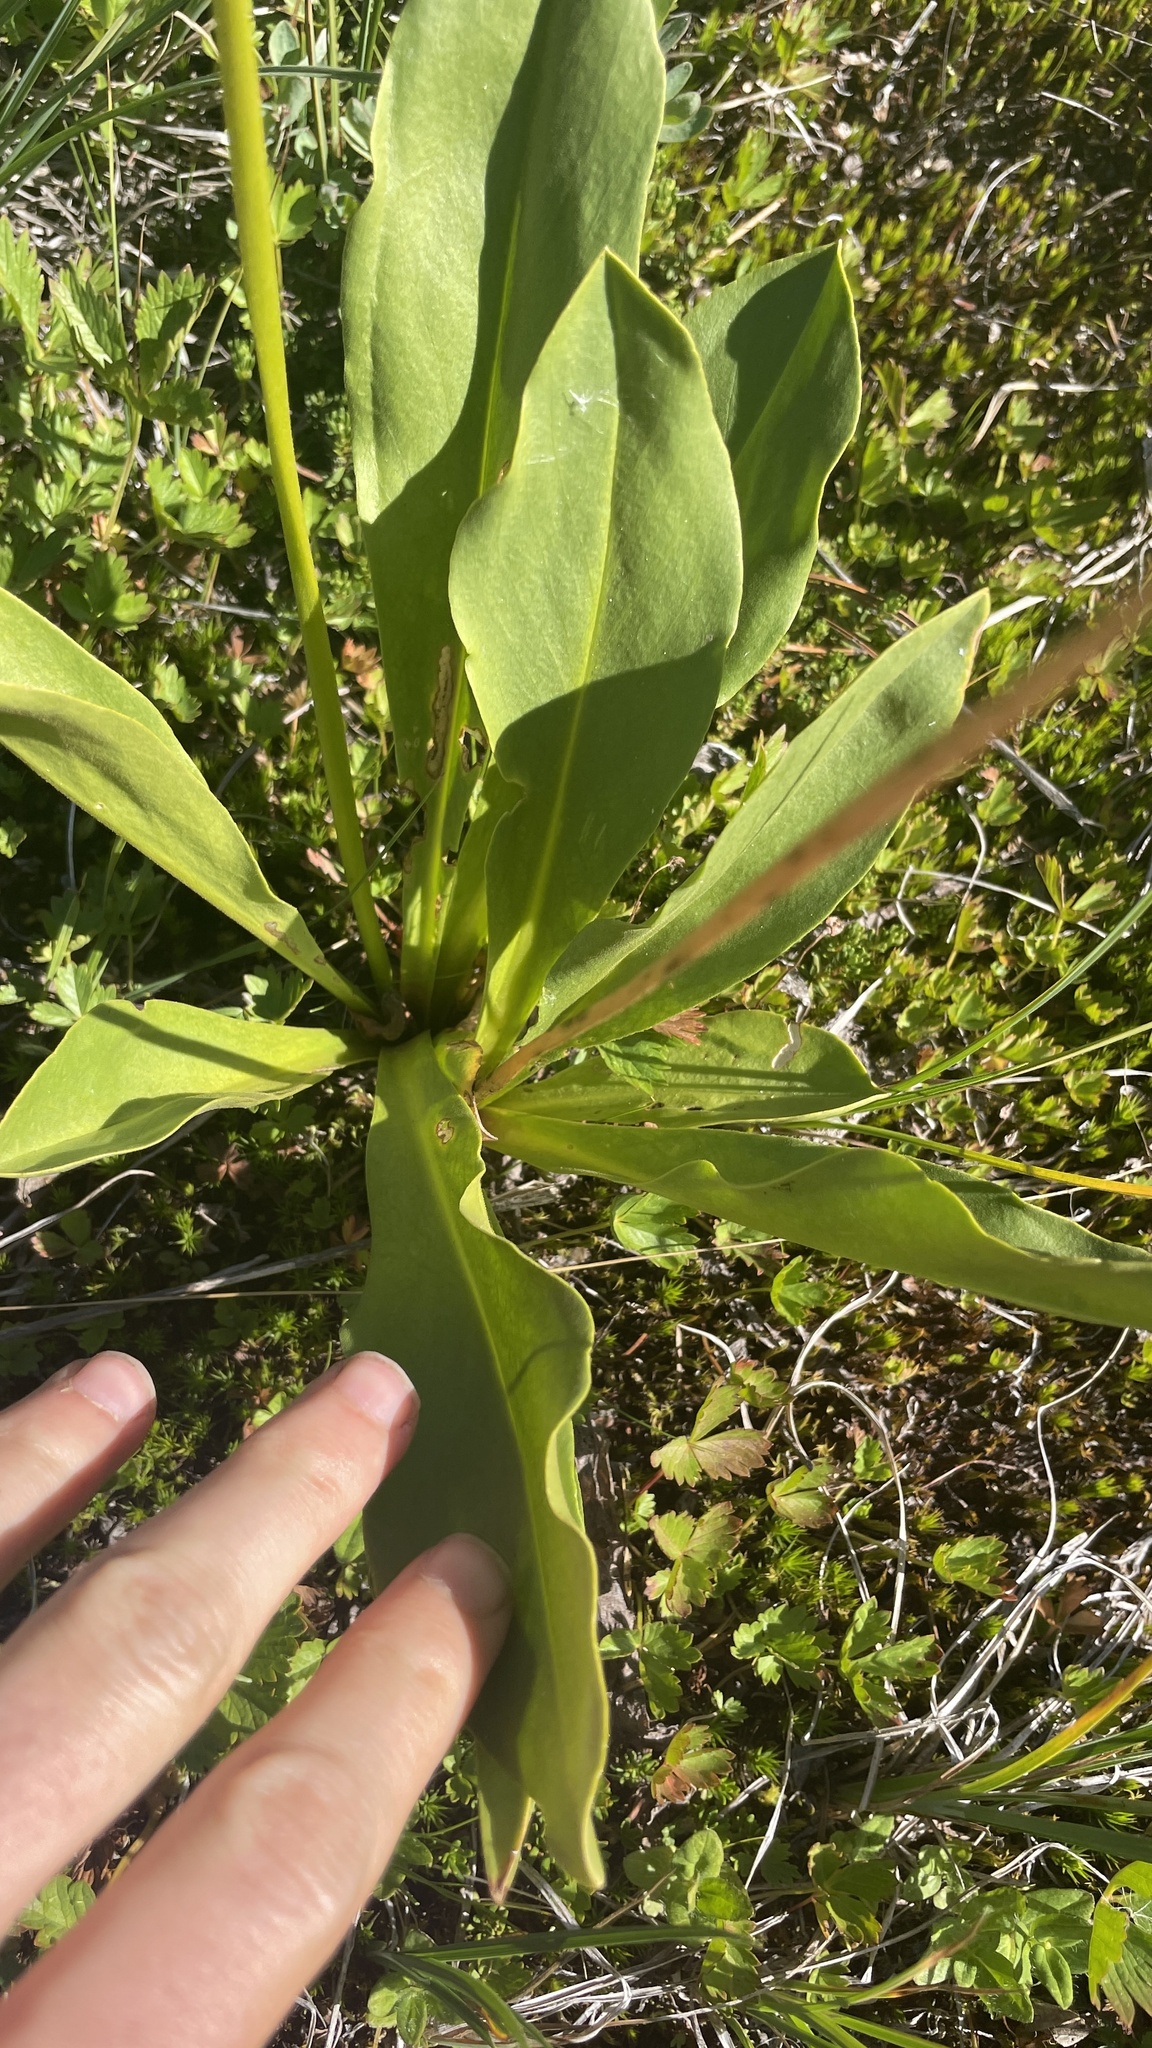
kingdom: Plantae
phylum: Tracheophyta
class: Magnoliopsida
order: Ericales
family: Primulaceae
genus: Dodecatheon
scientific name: Dodecatheon jeffreyanum
